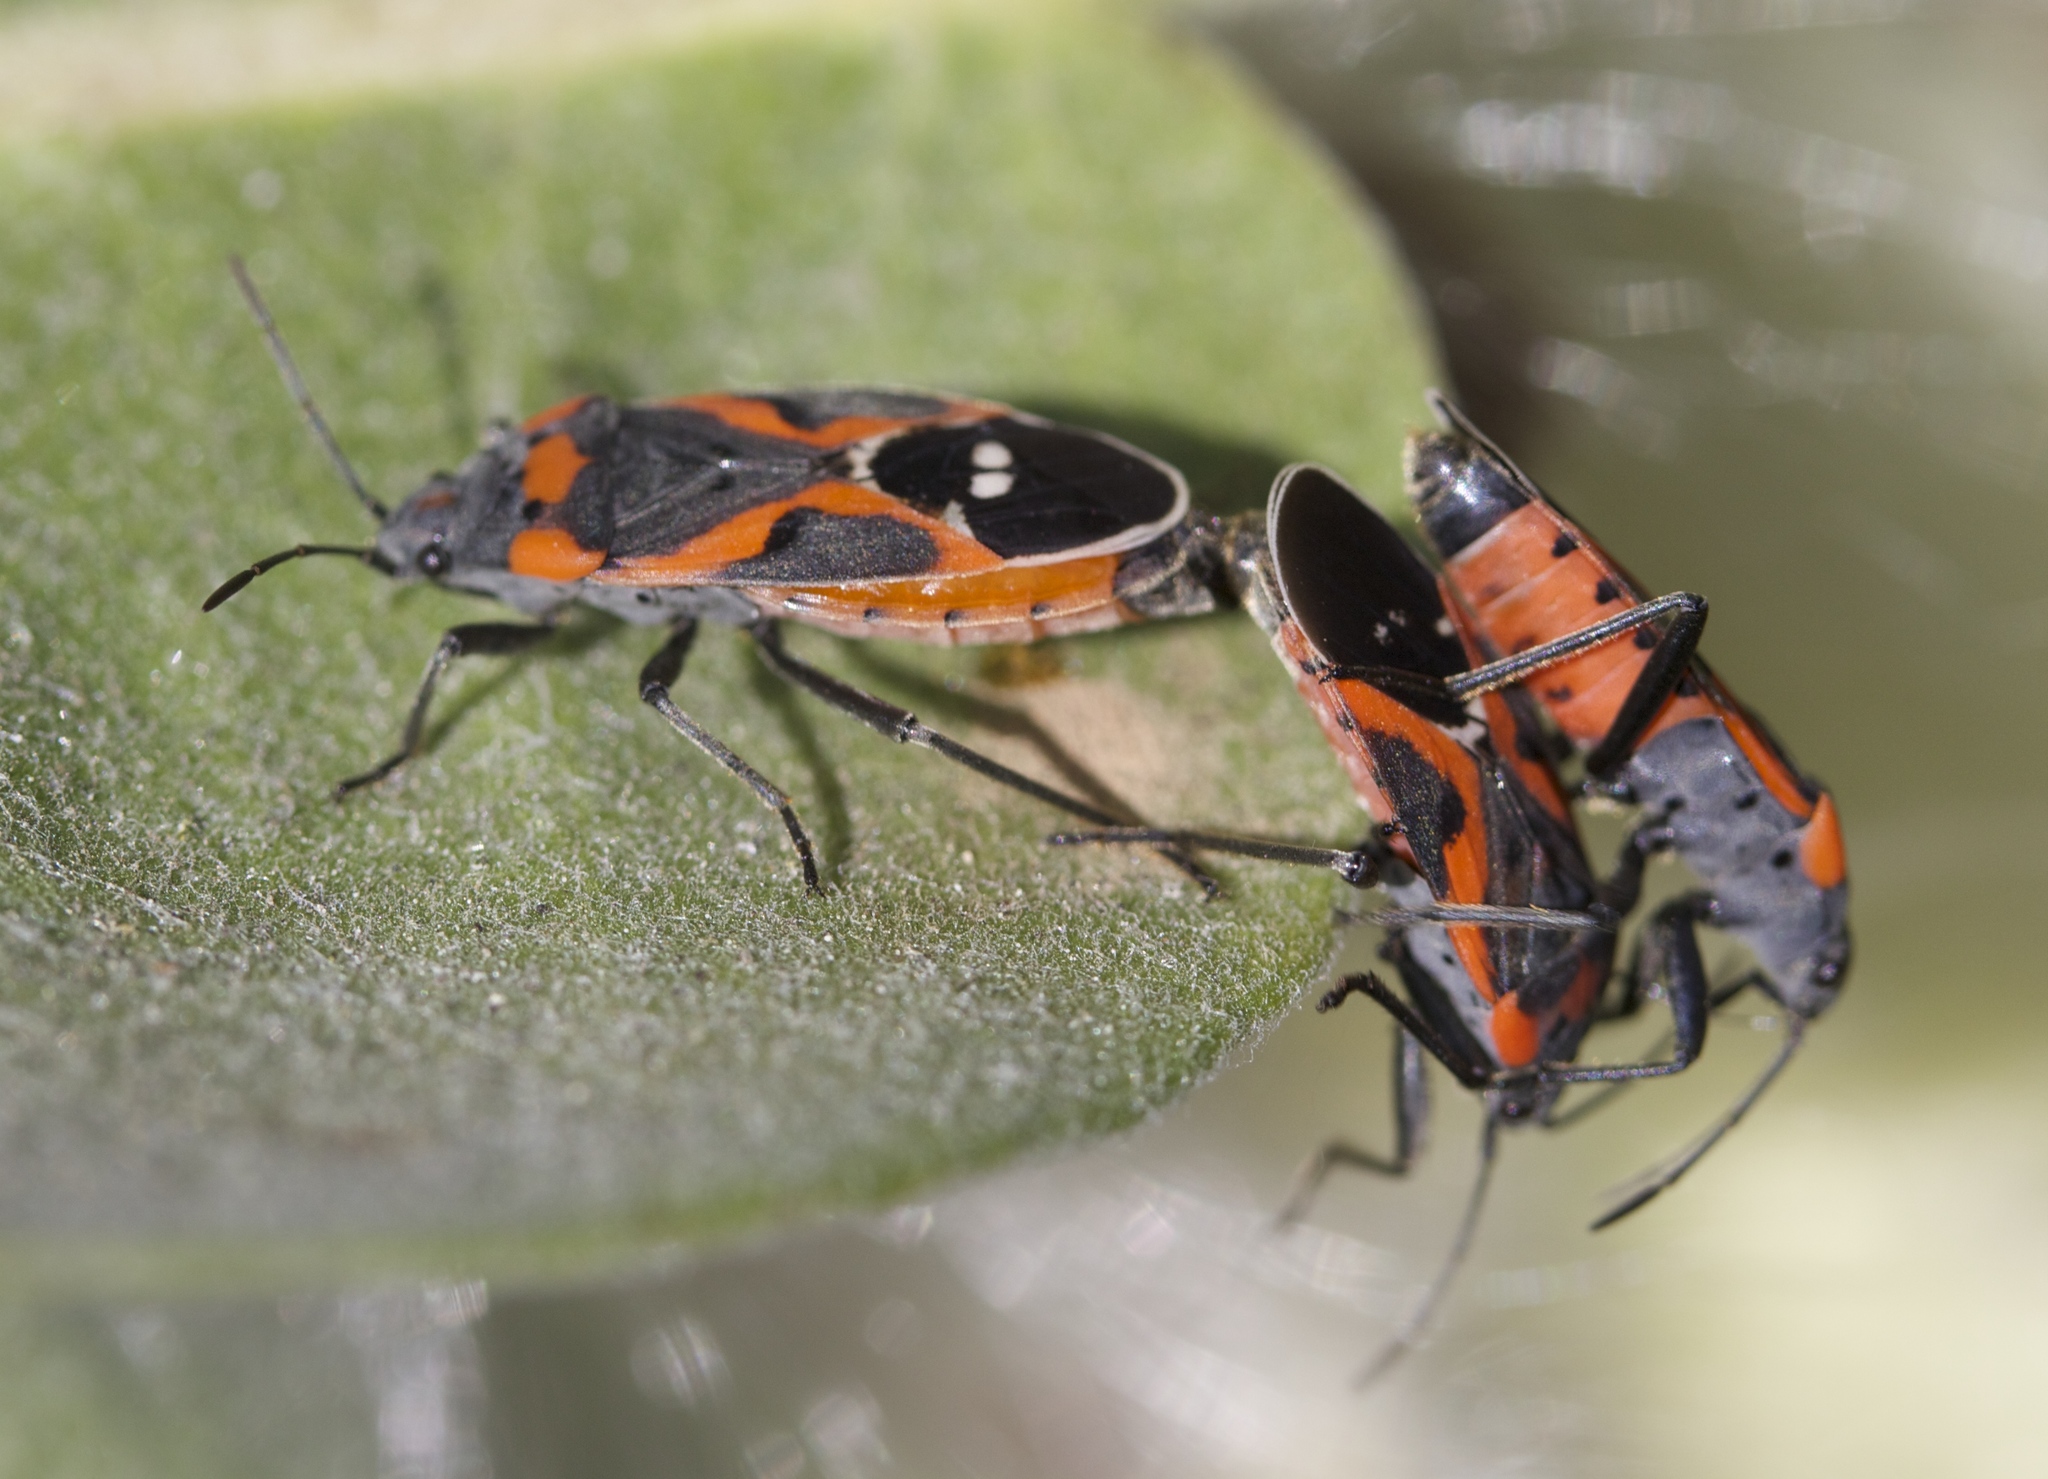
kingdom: Animalia
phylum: Arthropoda
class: Insecta
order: Hemiptera
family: Lygaeidae
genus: Lygaeus
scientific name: Lygaeus kalmii
